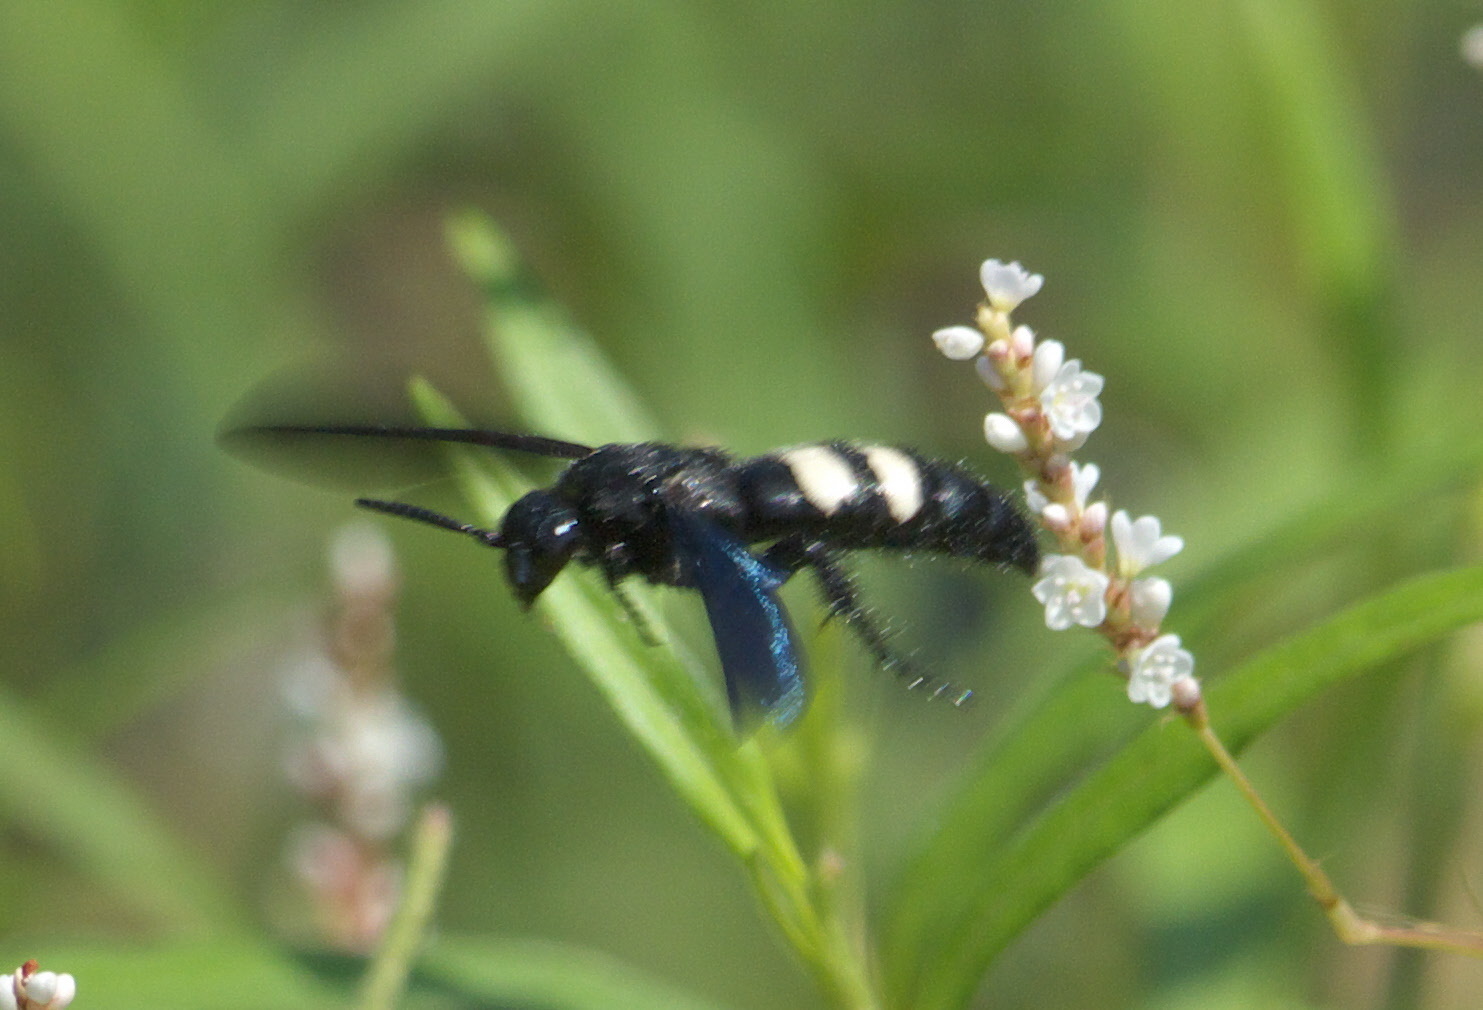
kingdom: Animalia
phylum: Arthropoda
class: Insecta
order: Hymenoptera
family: Scoliidae
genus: Scolia
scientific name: Scolia bicincta
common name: Double-banded scoliid wasp
